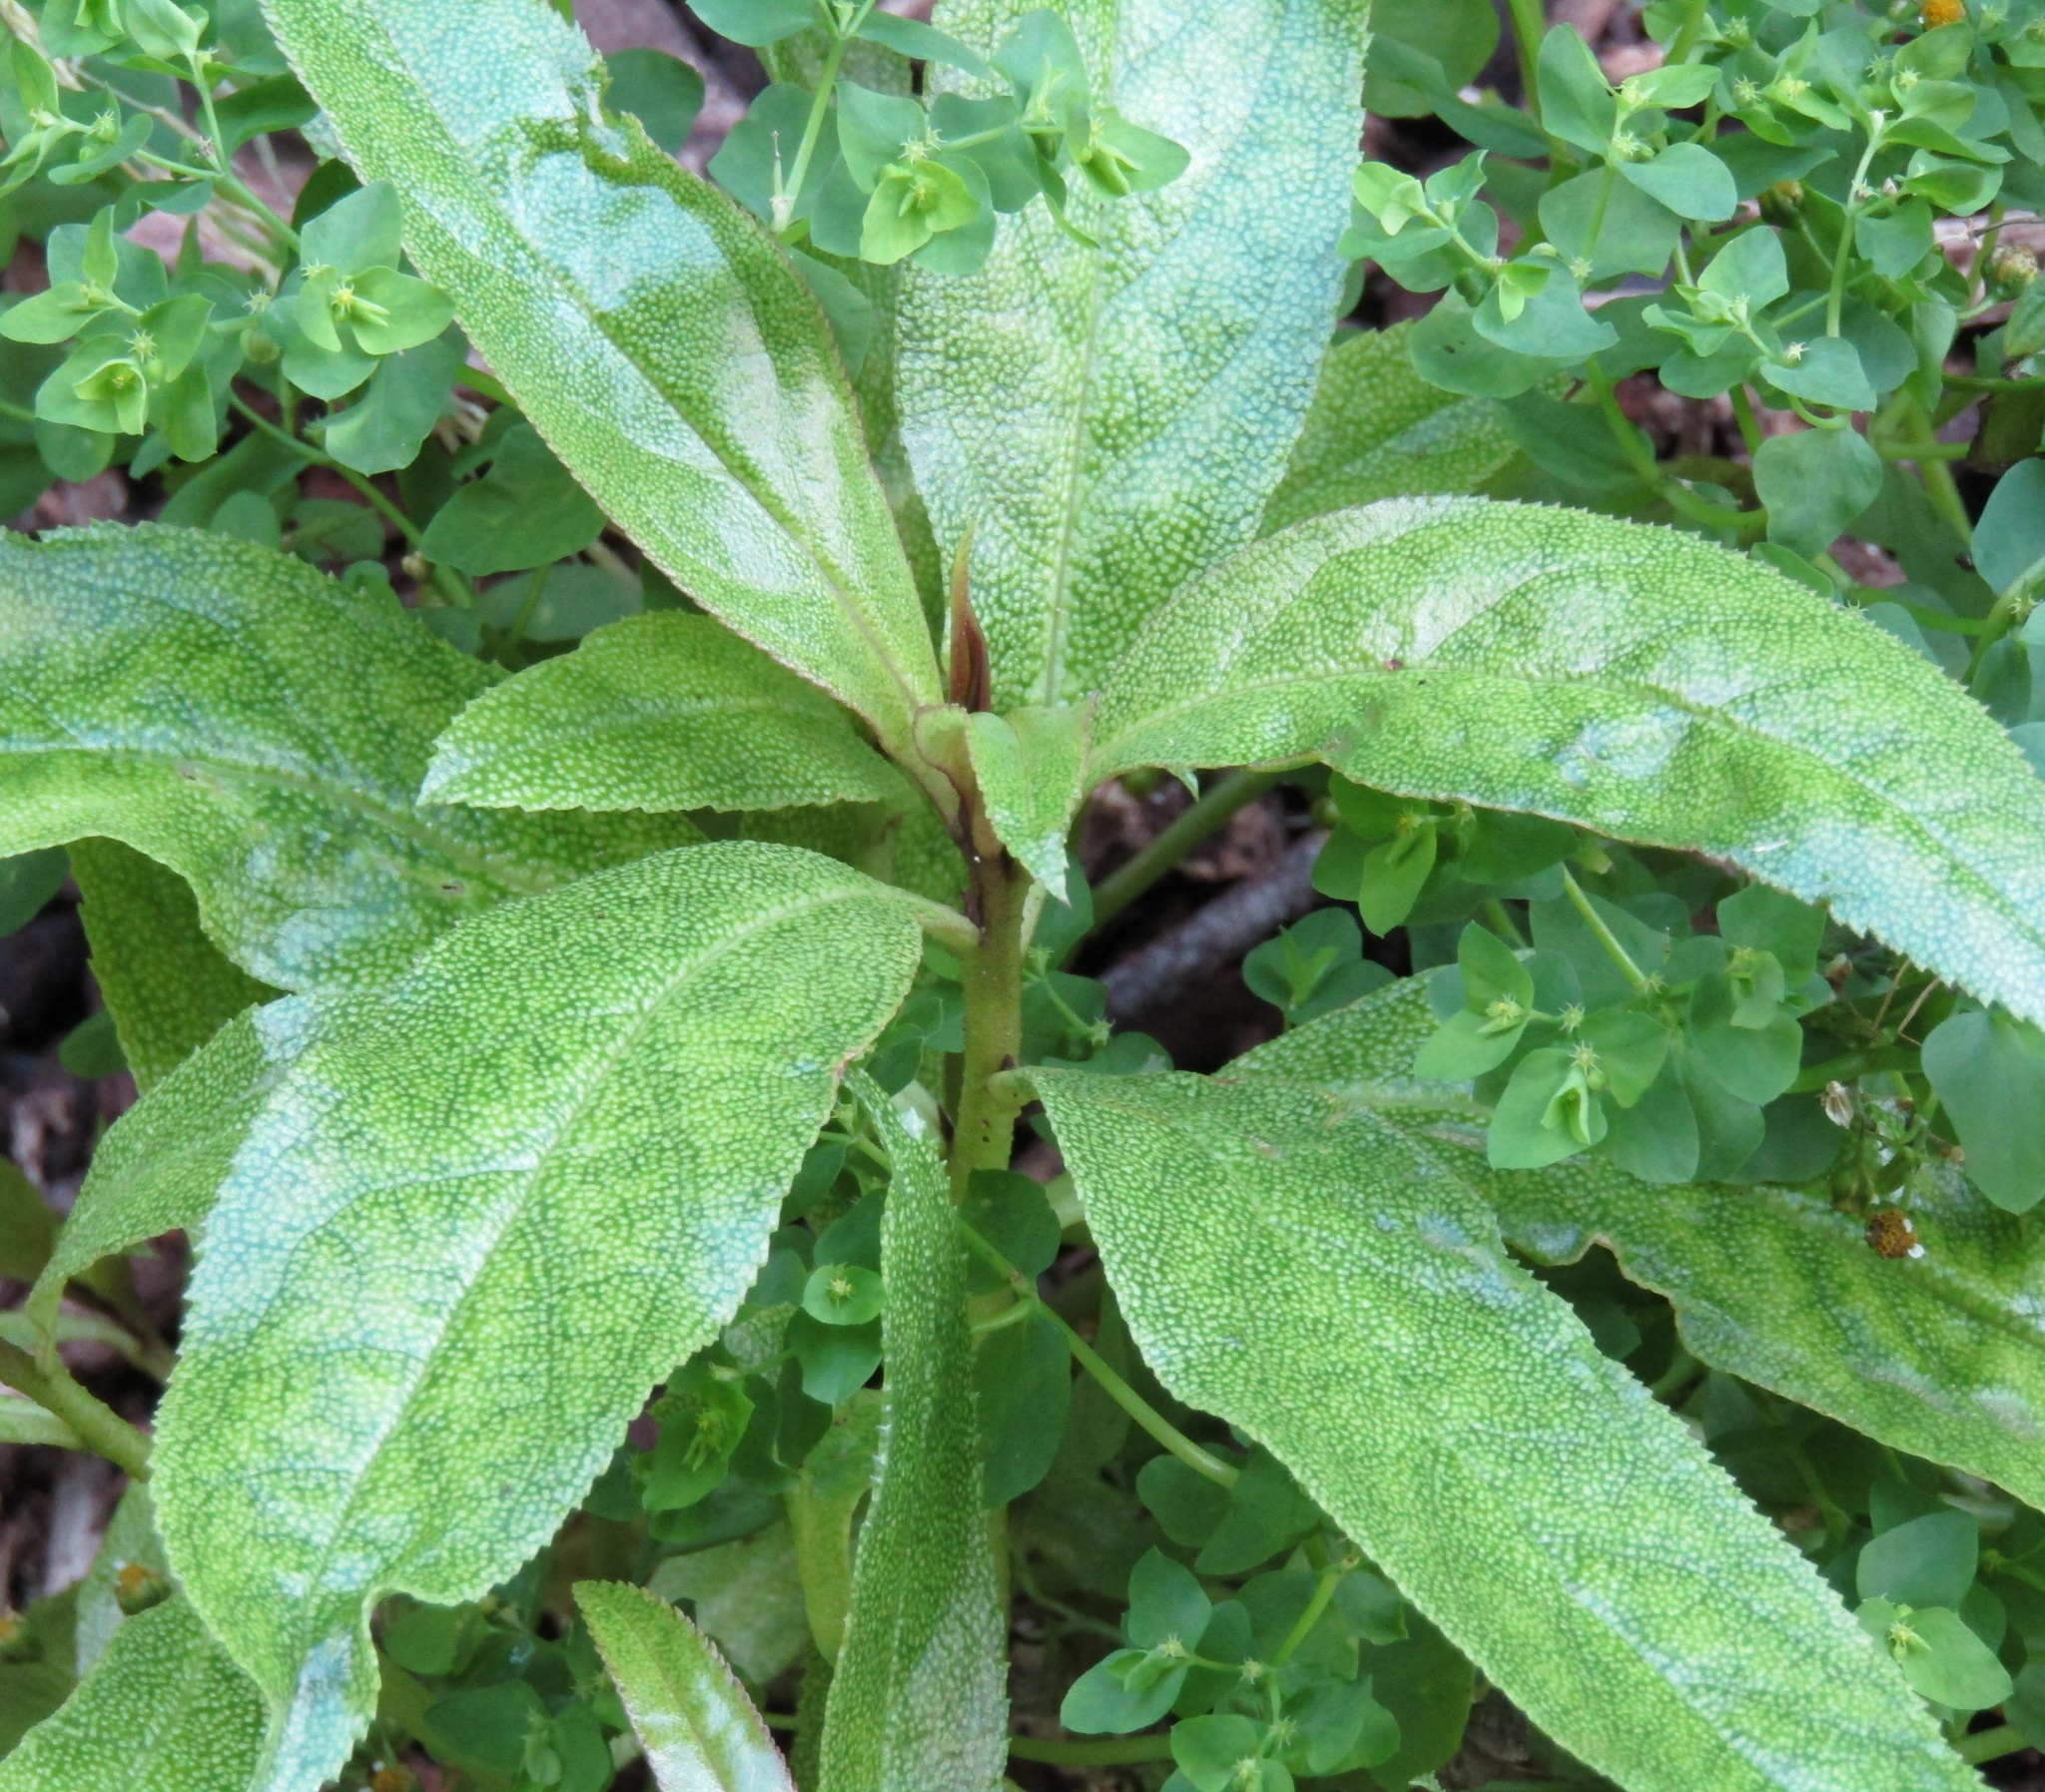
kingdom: Plantae
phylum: Tracheophyta
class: Magnoliopsida
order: Lamiales
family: Scrophulariaceae
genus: Myoporum
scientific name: Myoporum laetum
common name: Ngaio tree
